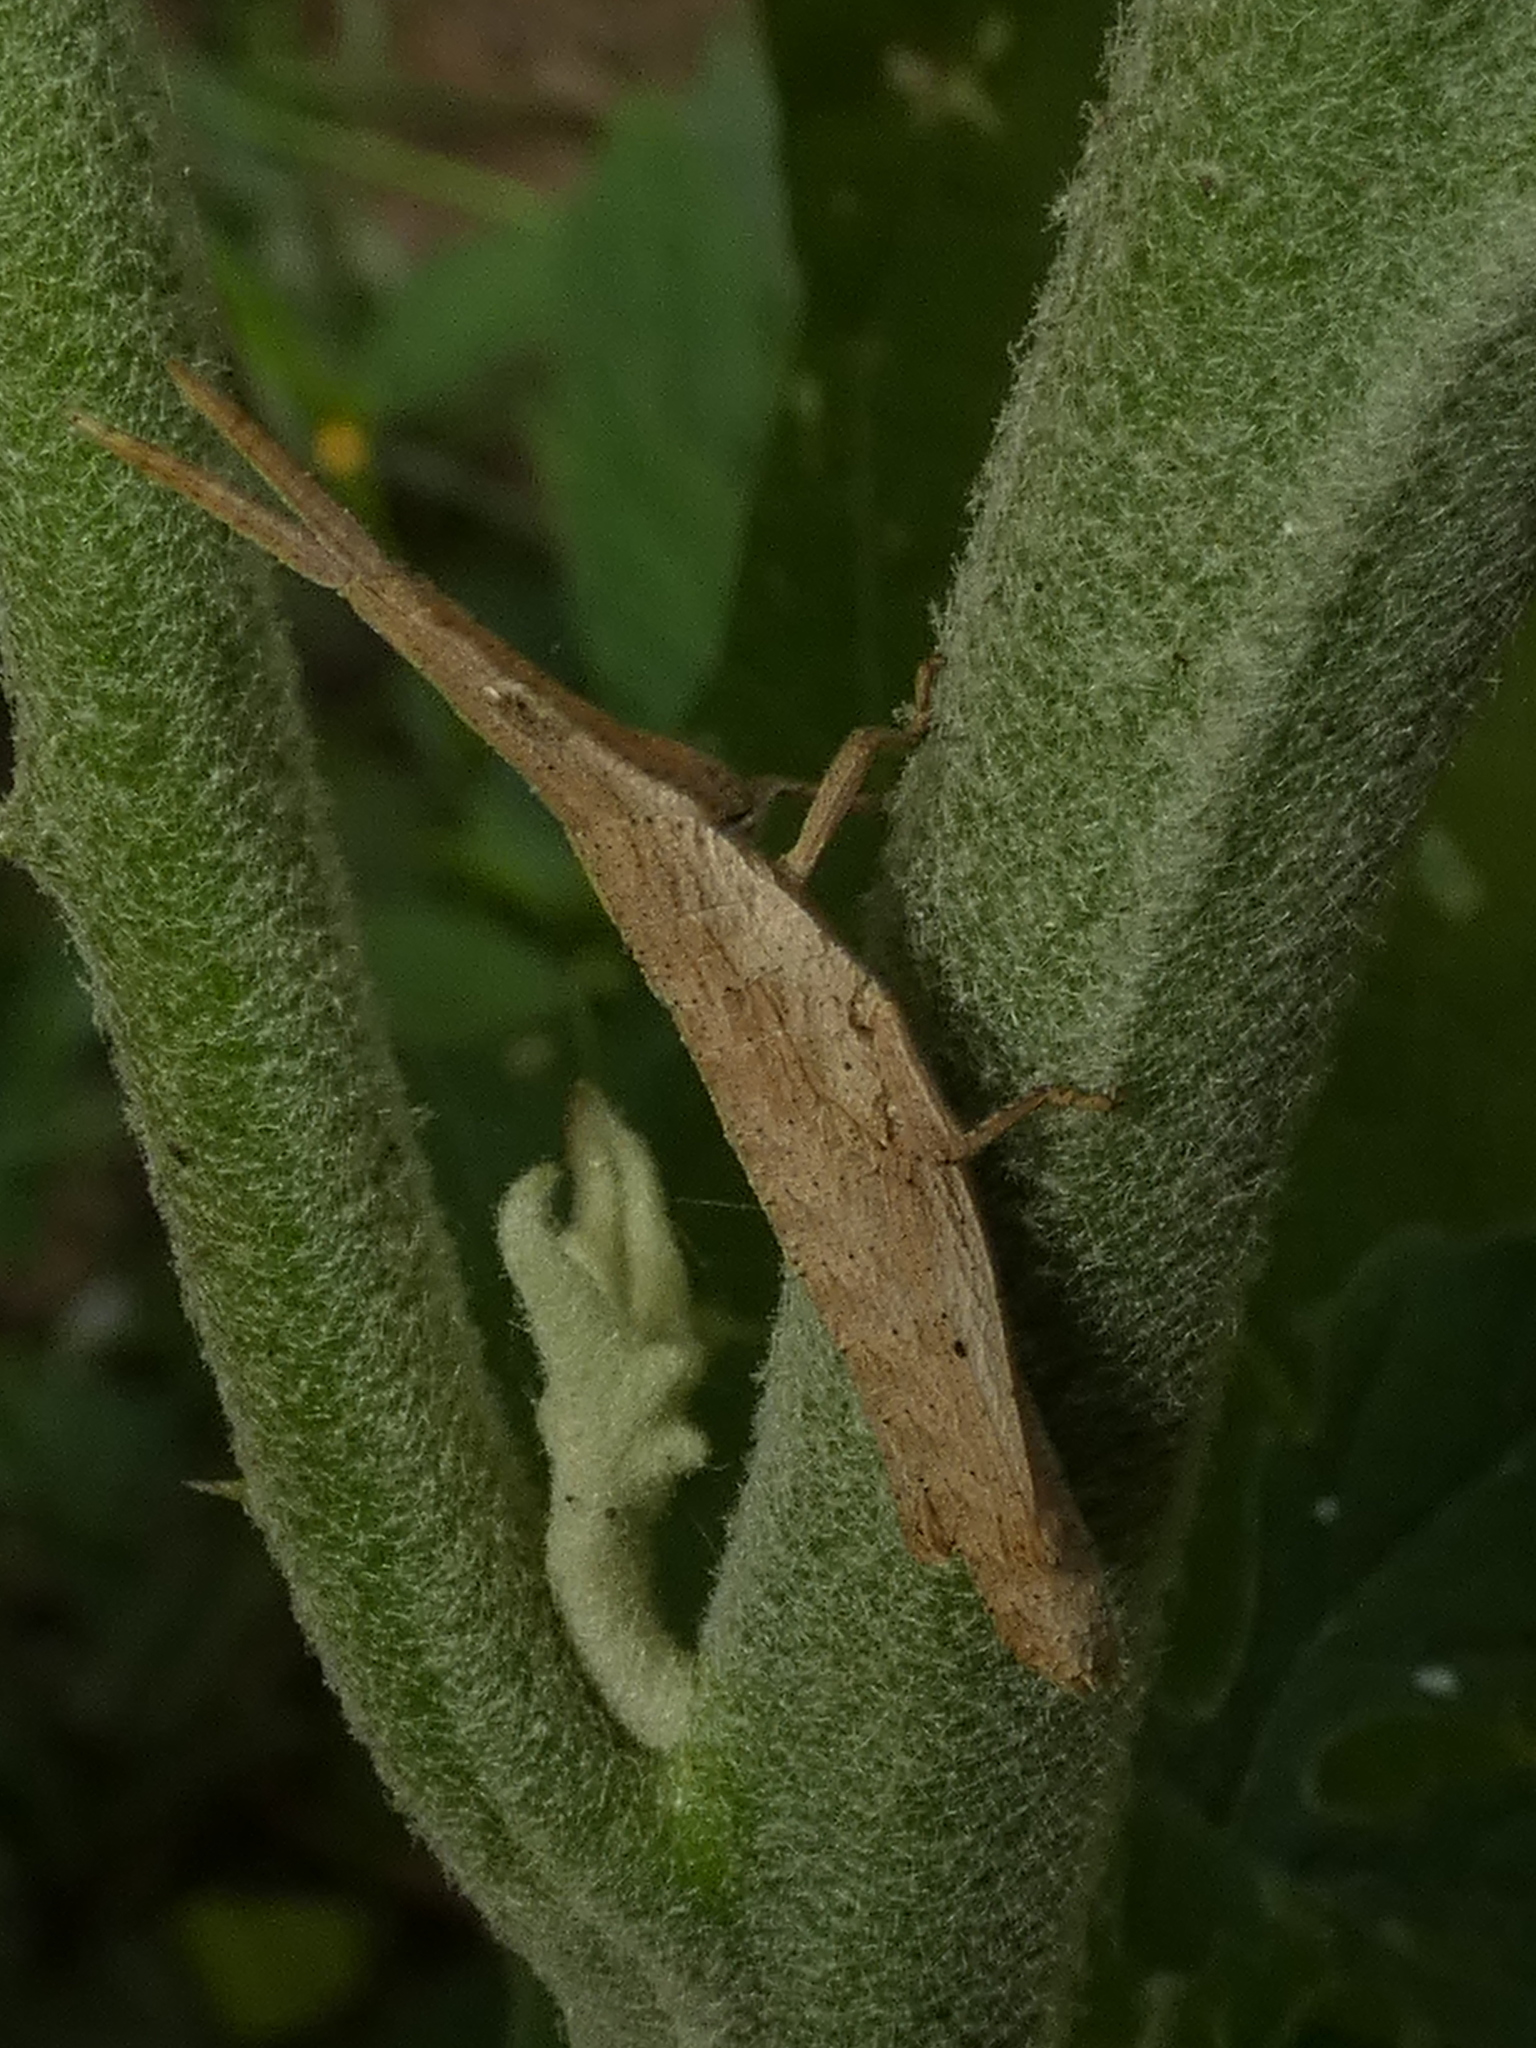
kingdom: Animalia
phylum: Arthropoda
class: Insecta
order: Orthoptera
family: Pyrgomorphidae
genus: Algete
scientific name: Algete brunneri
